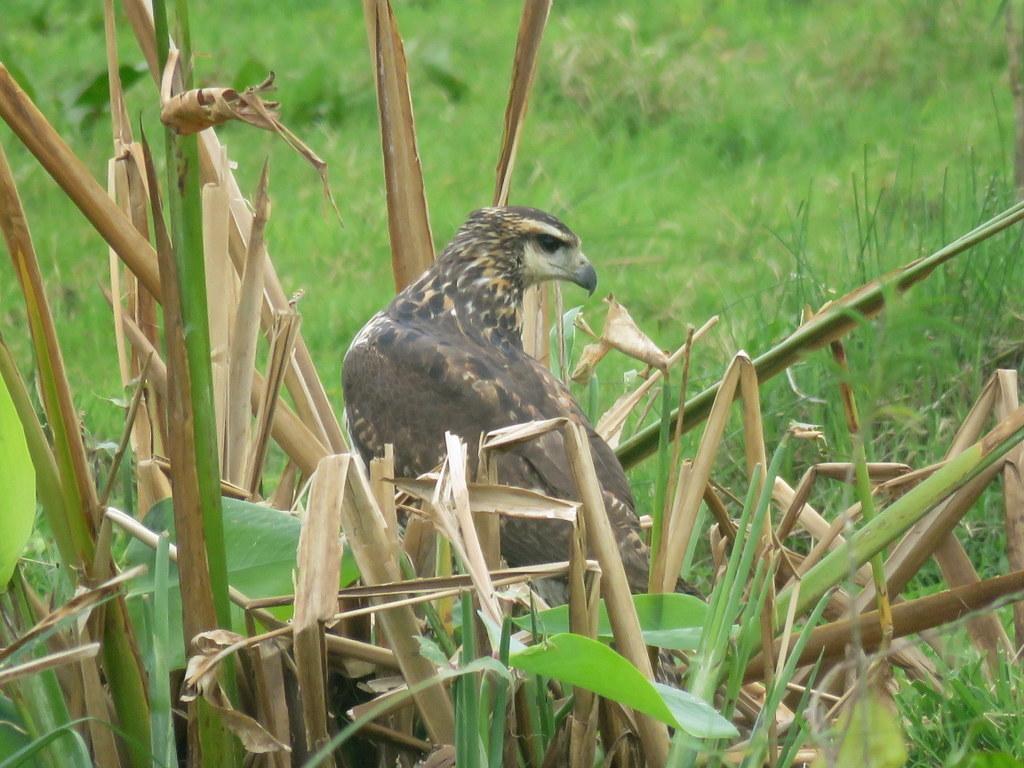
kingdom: Animalia
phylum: Chordata
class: Aves
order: Accipitriformes
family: Accipitridae
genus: Buteogallus
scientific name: Buteogallus urubitinga
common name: Great black hawk
